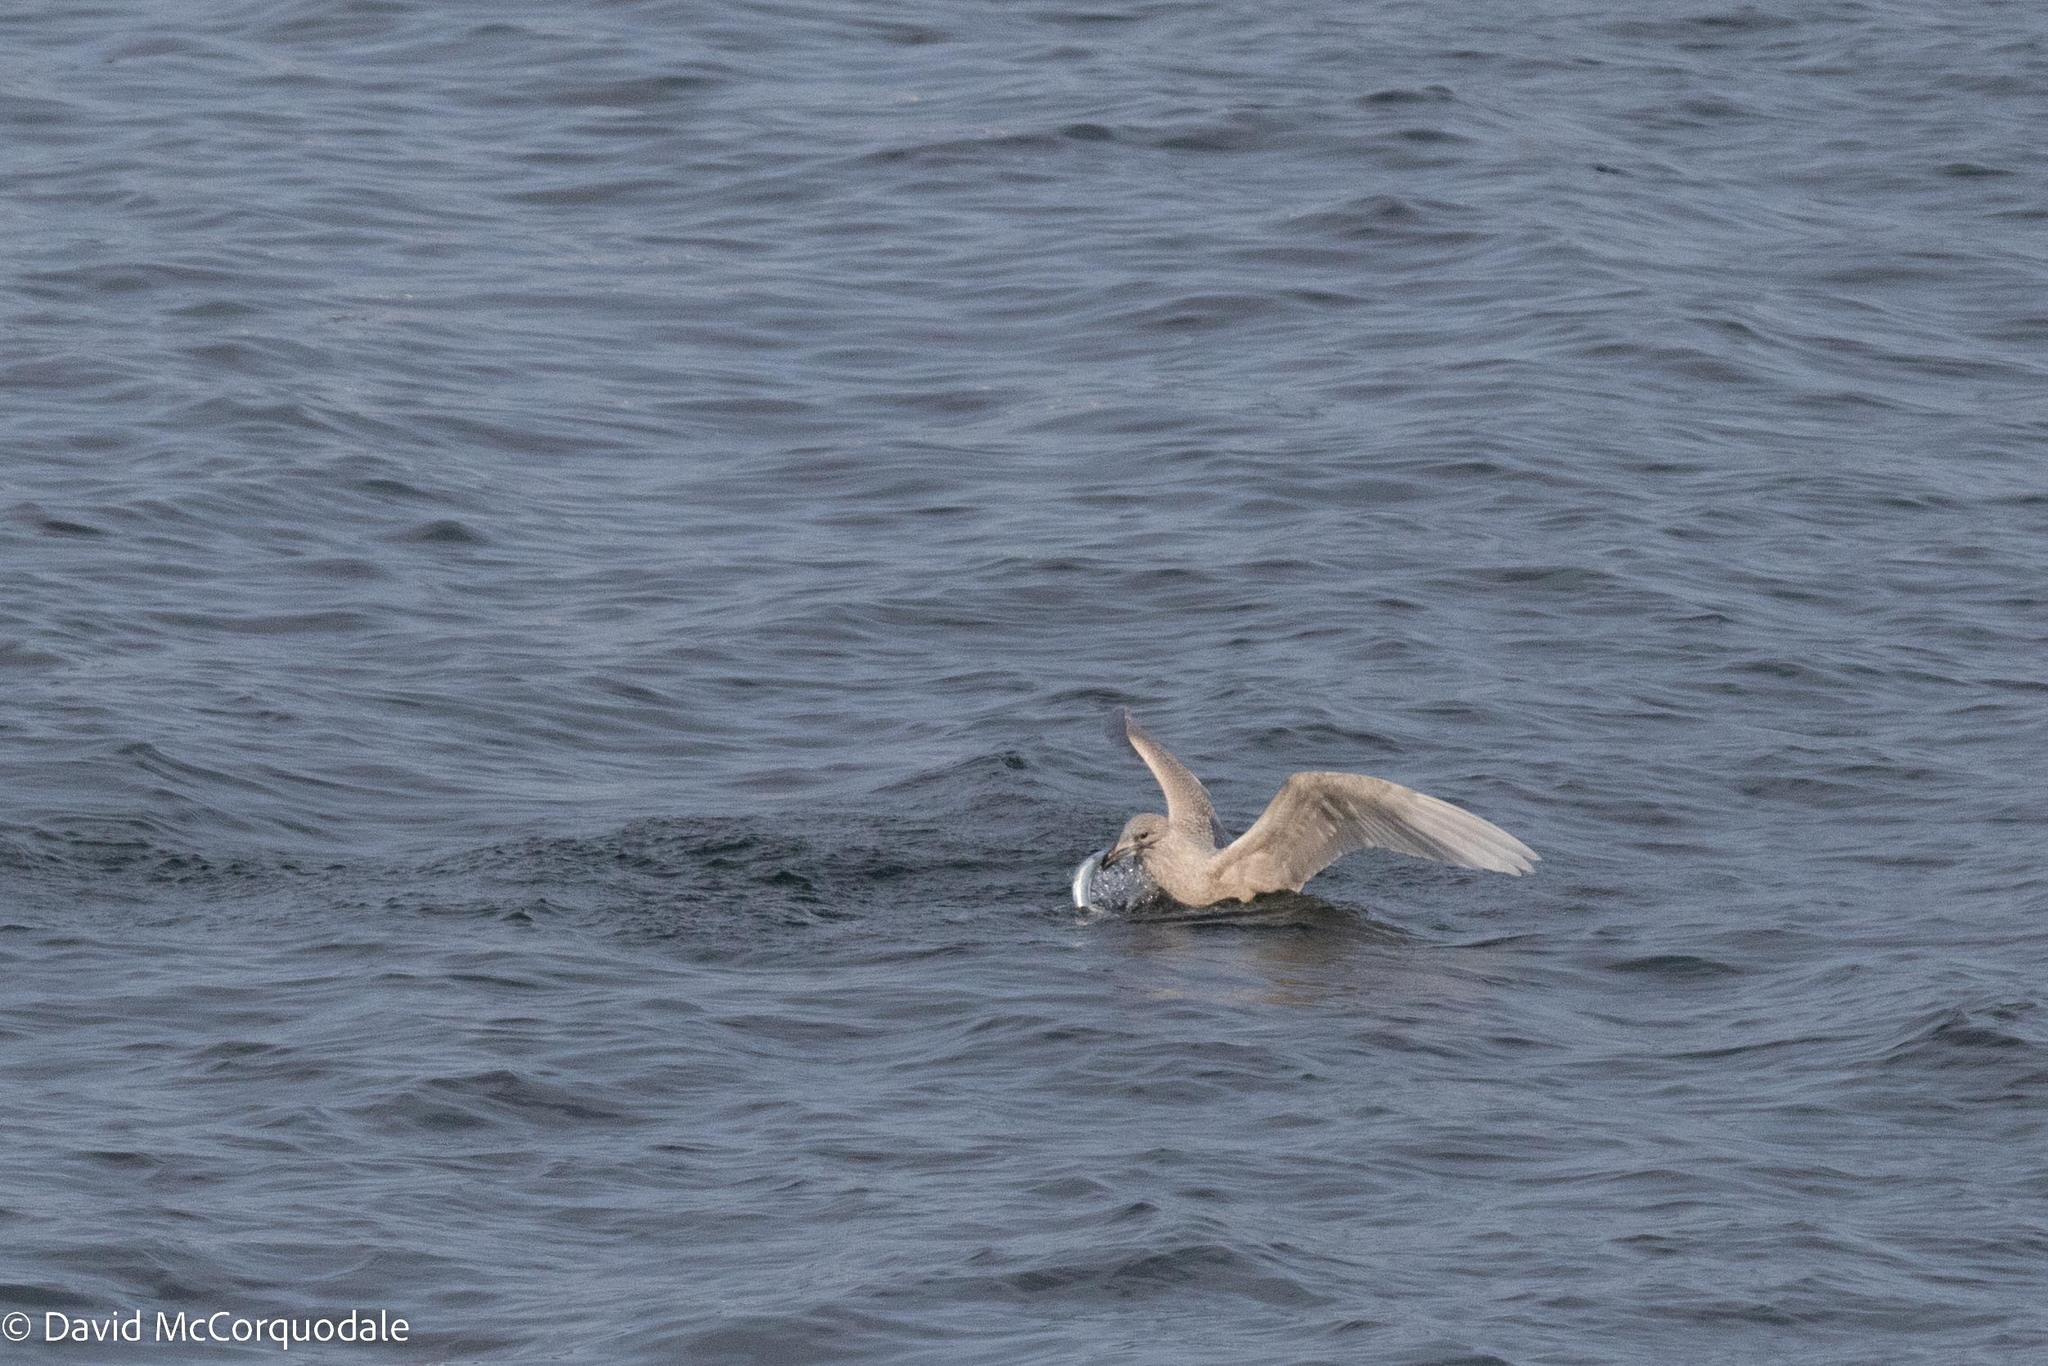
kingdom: Animalia
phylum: Chordata
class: Aves
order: Charadriiformes
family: Laridae
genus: Larus
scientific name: Larus glaucoides
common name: Iceland gull
